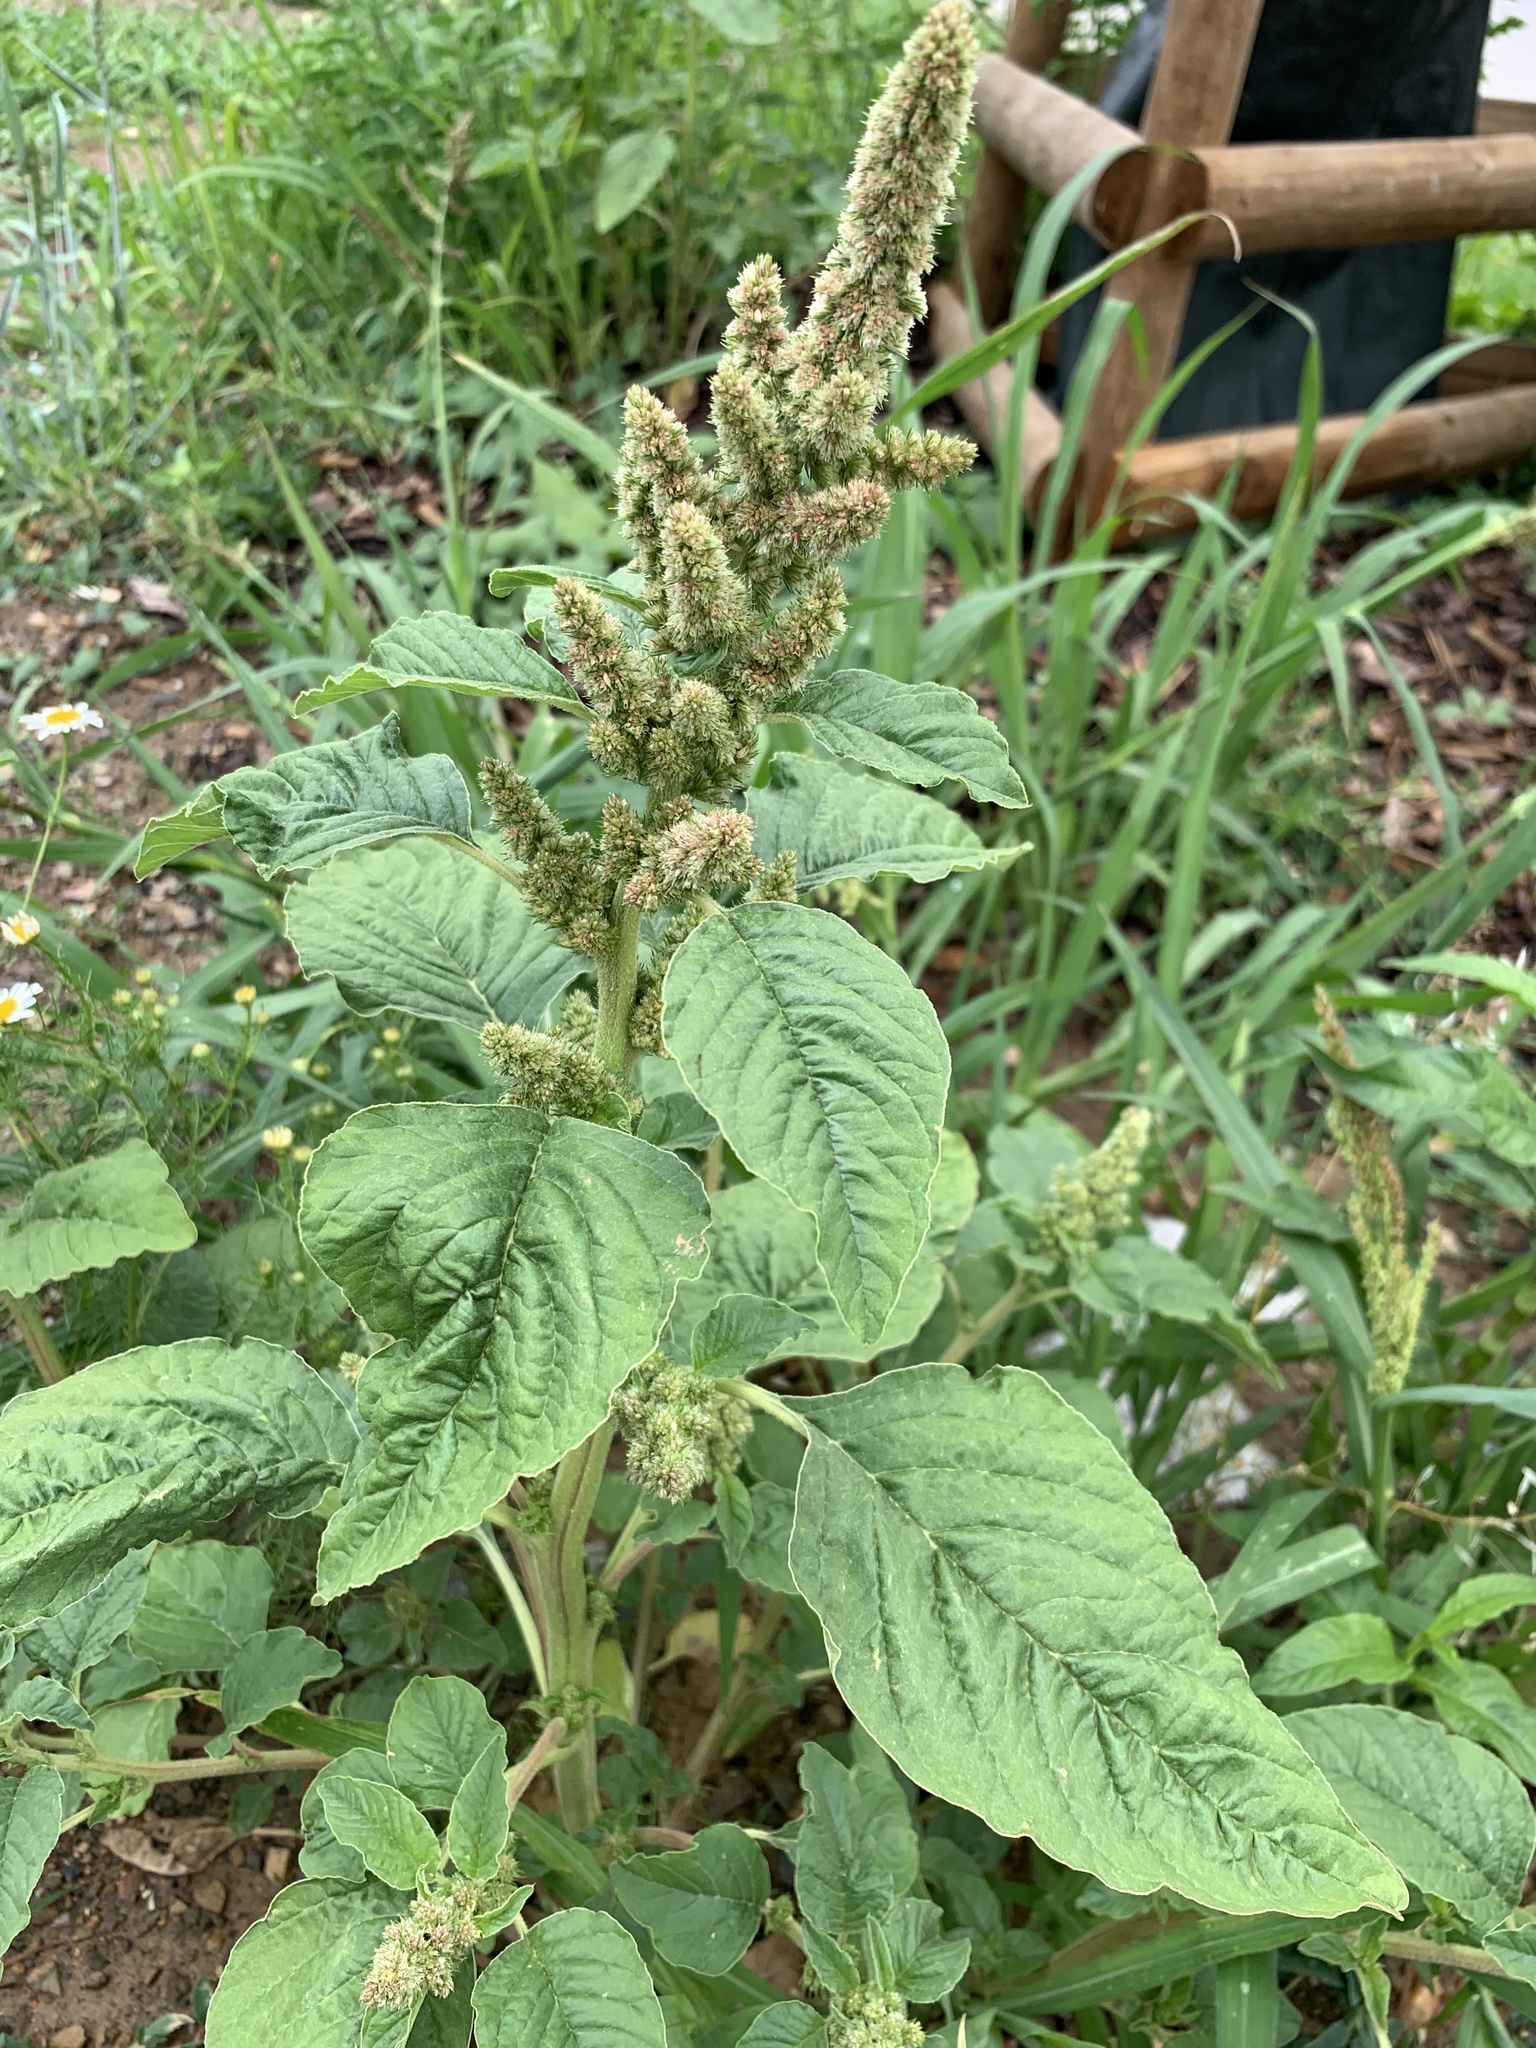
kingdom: Plantae
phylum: Tracheophyta
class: Magnoliopsida
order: Caryophyllales
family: Amaranthaceae
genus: Amaranthus
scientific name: Amaranthus retroflexus
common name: Redroot amaranth
